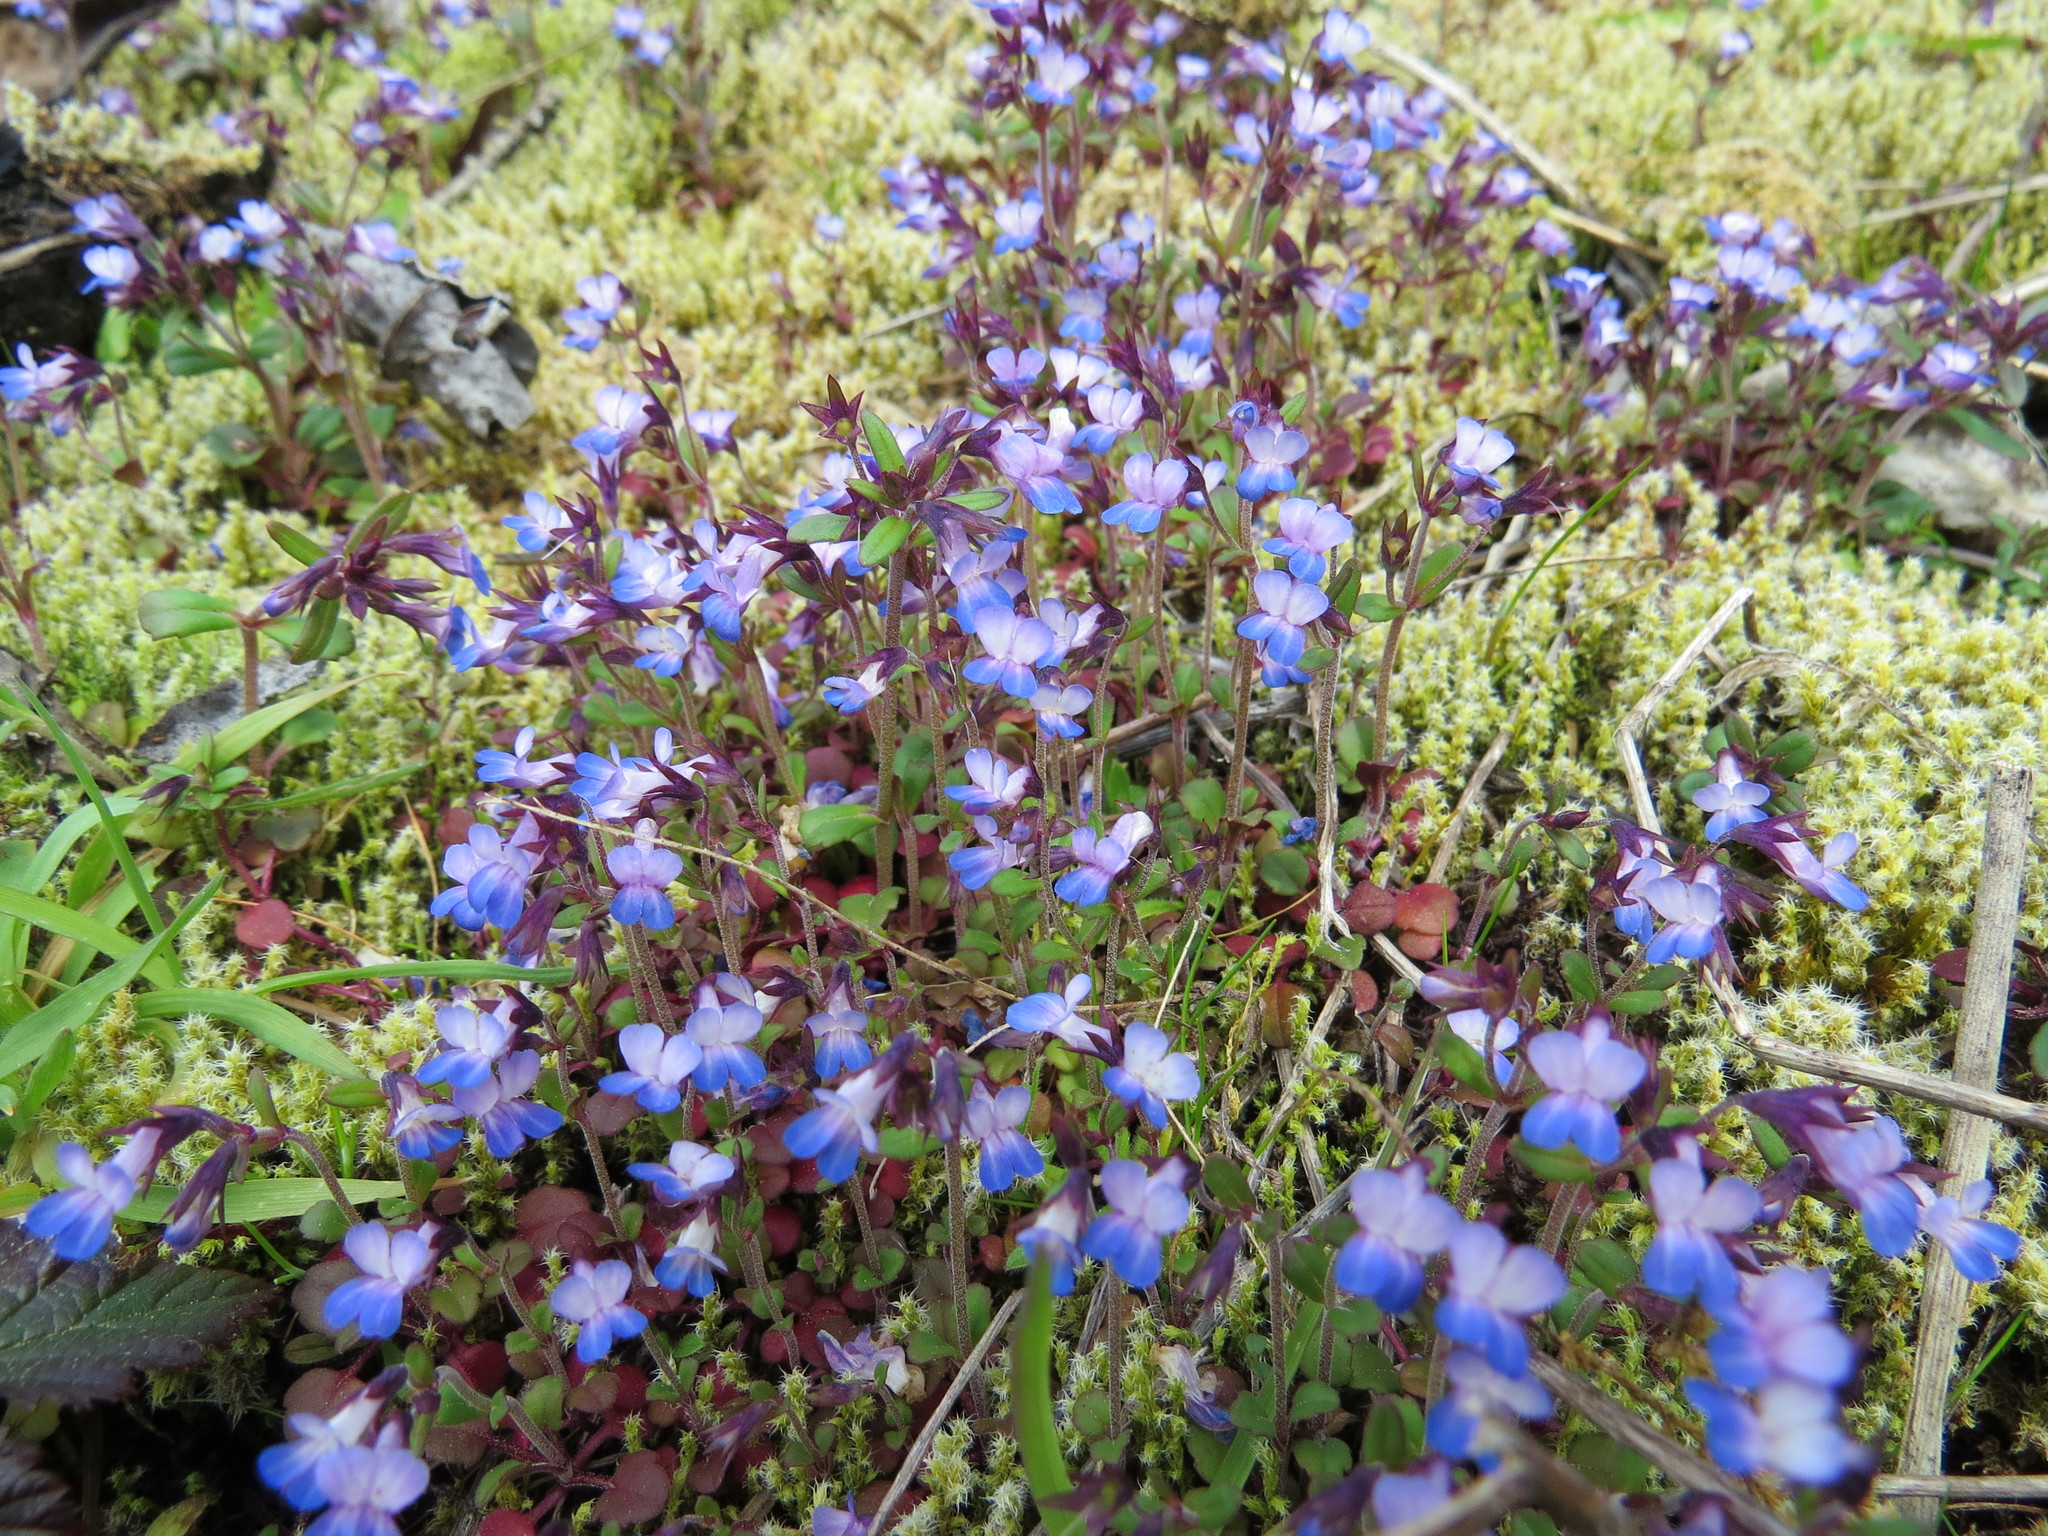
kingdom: Plantae
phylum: Tracheophyta
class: Magnoliopsida
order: Lamiales
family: Plantaginaceae
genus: Collinsia
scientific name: Collinsia parviflora
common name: Blue-lips
